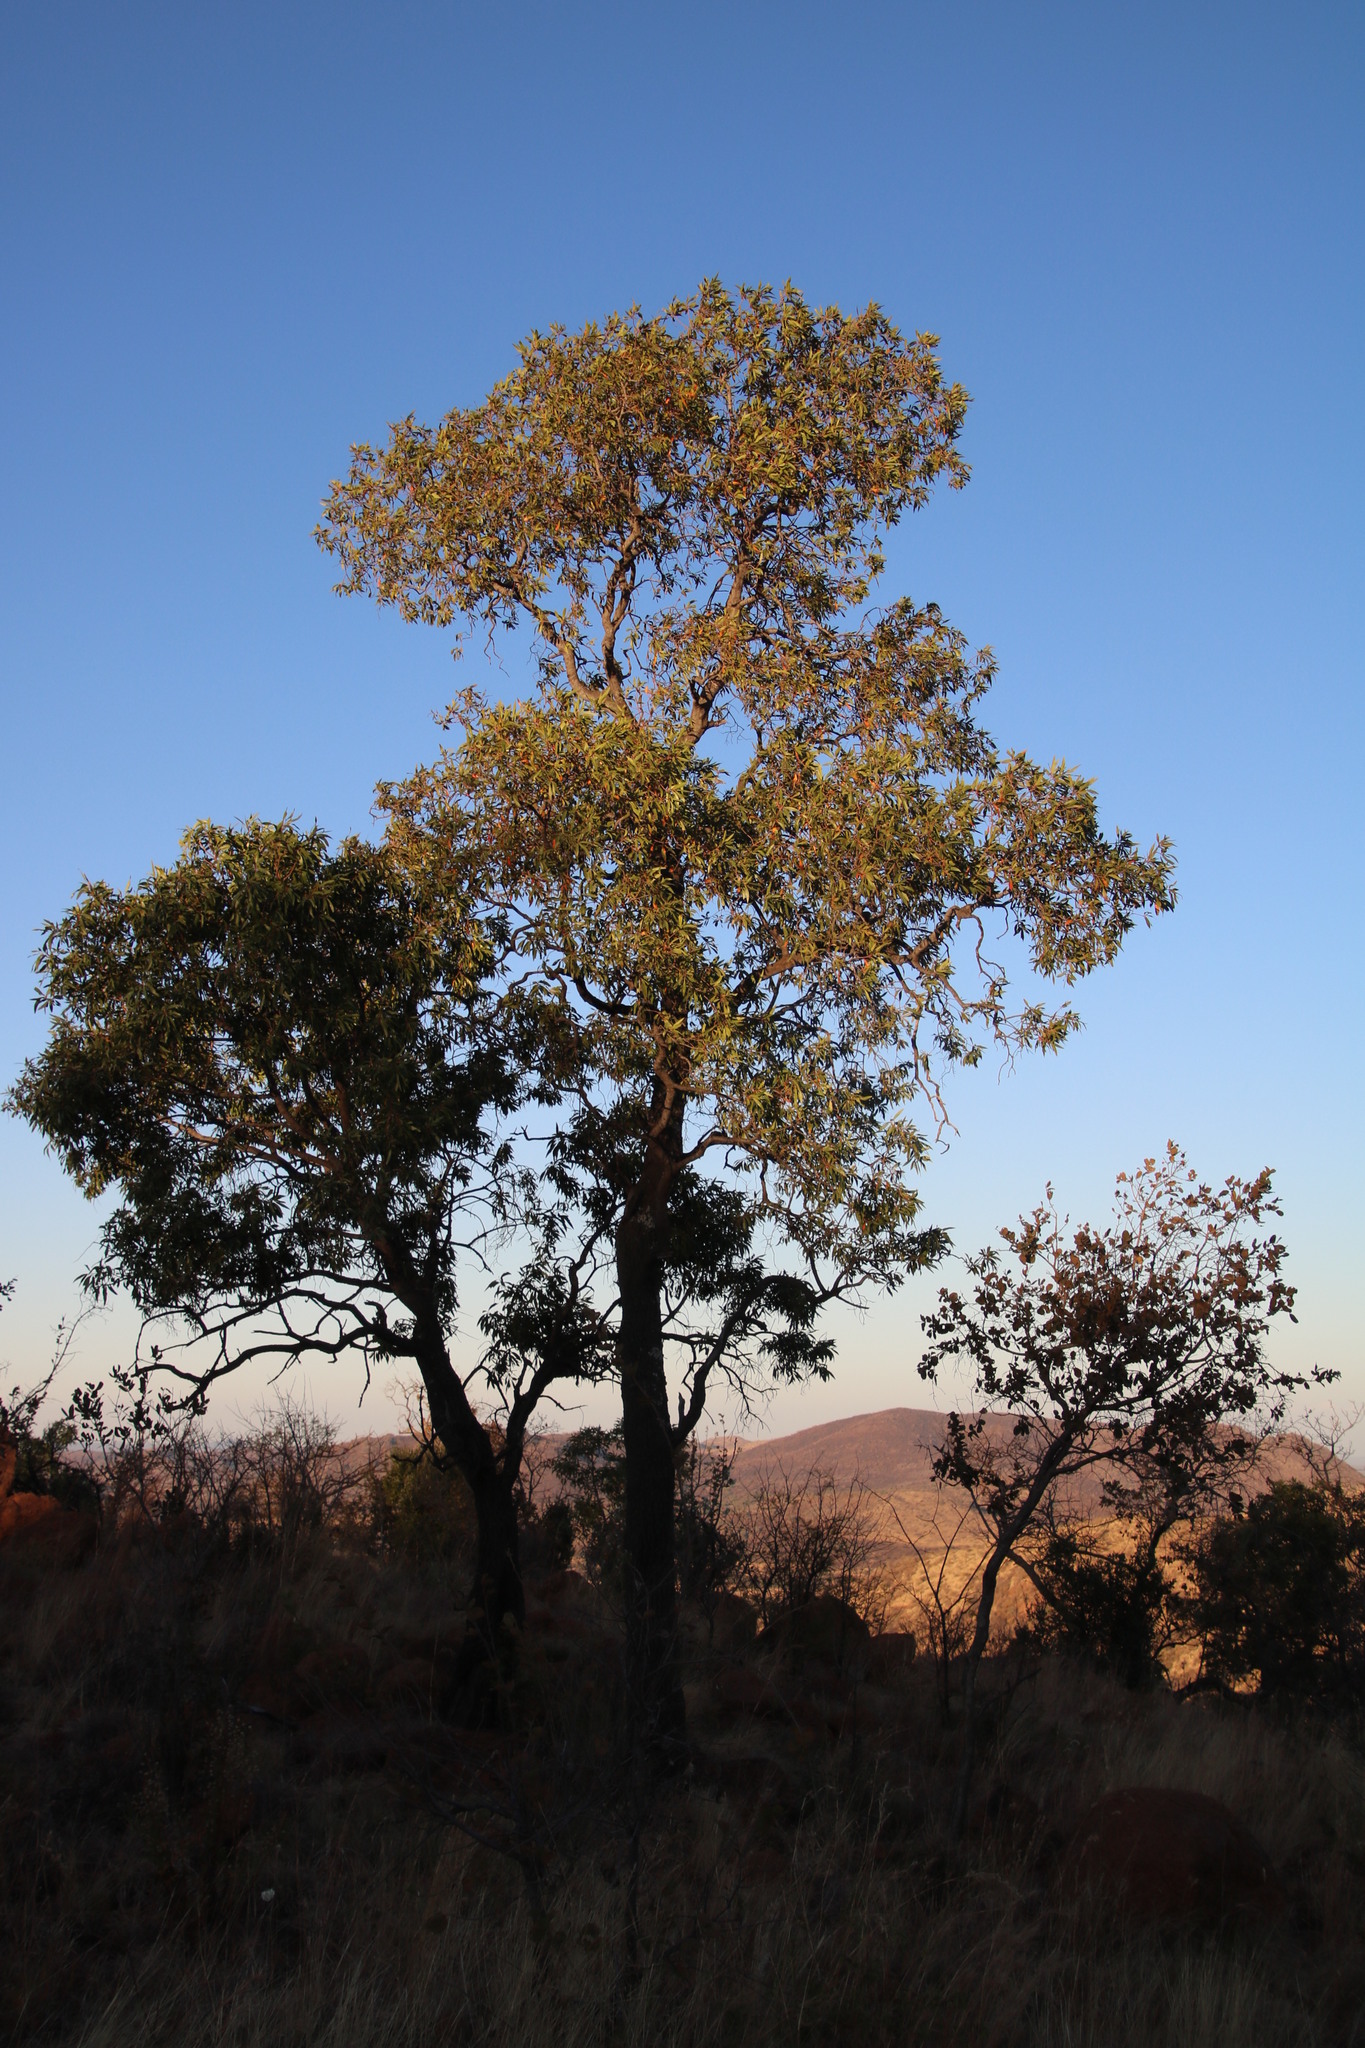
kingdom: Plantae
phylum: Tracheophyta
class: Magnoliopsida
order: Proteales
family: Proteaceae
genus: Faurea
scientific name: Faurea saligna
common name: African bean
